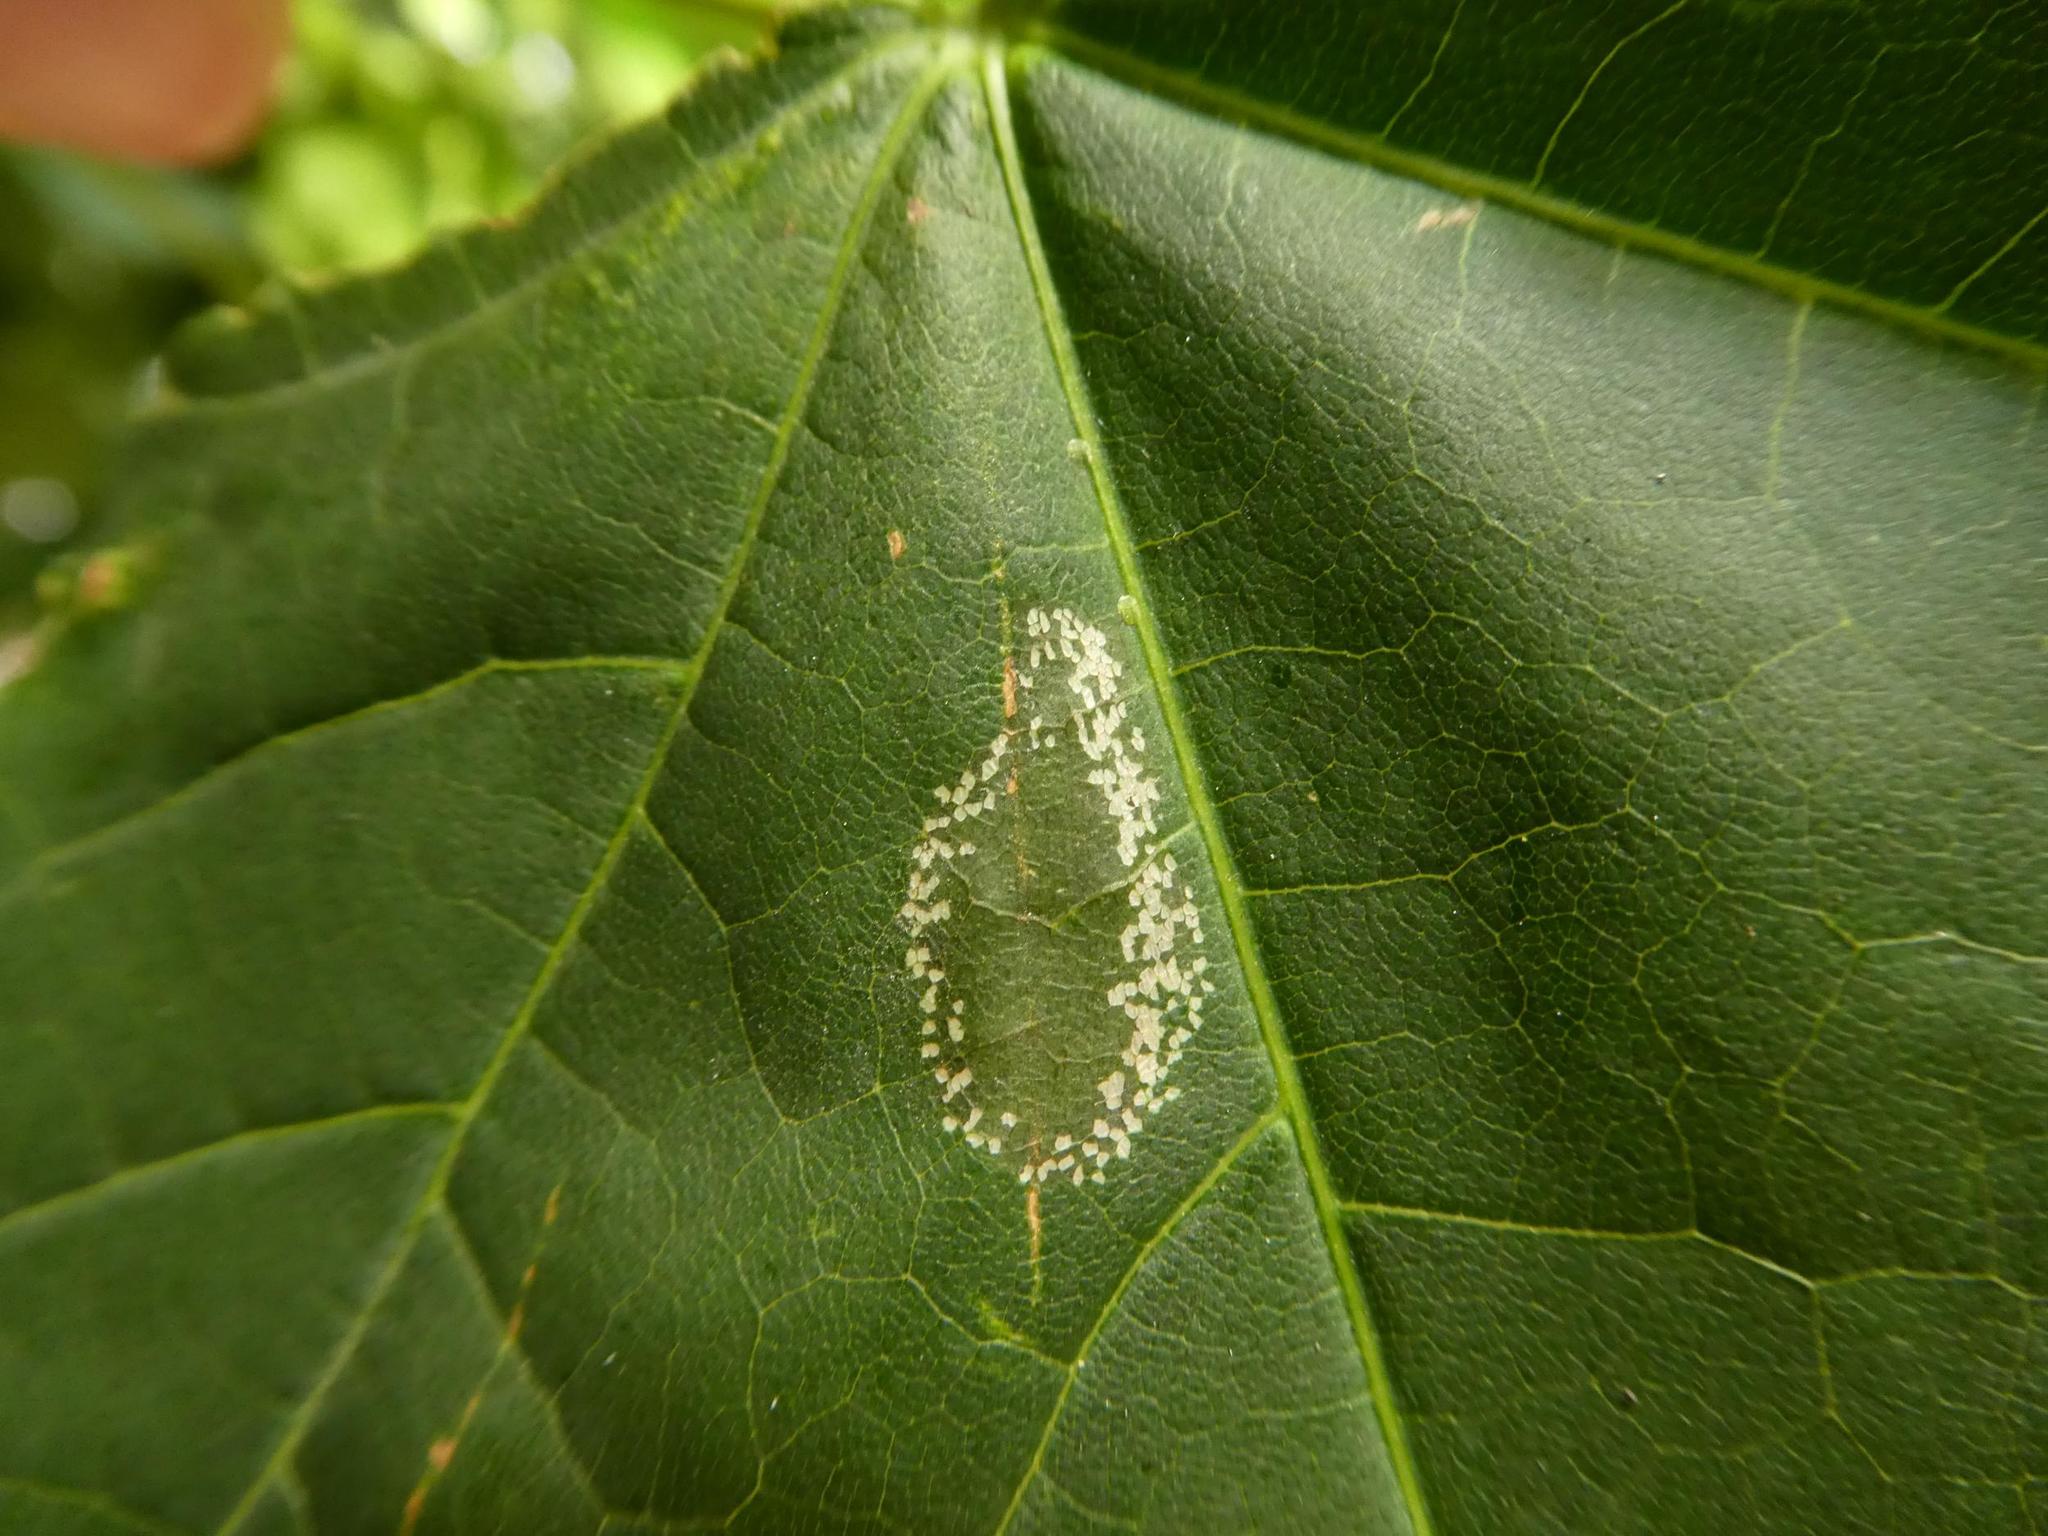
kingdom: Animalia
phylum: Arthropoda
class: Insecta
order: Lepidoptera
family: Gracillariidae
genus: Phyllonorycter
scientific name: Phyllonorycter joannisi
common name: White-bodied midget
